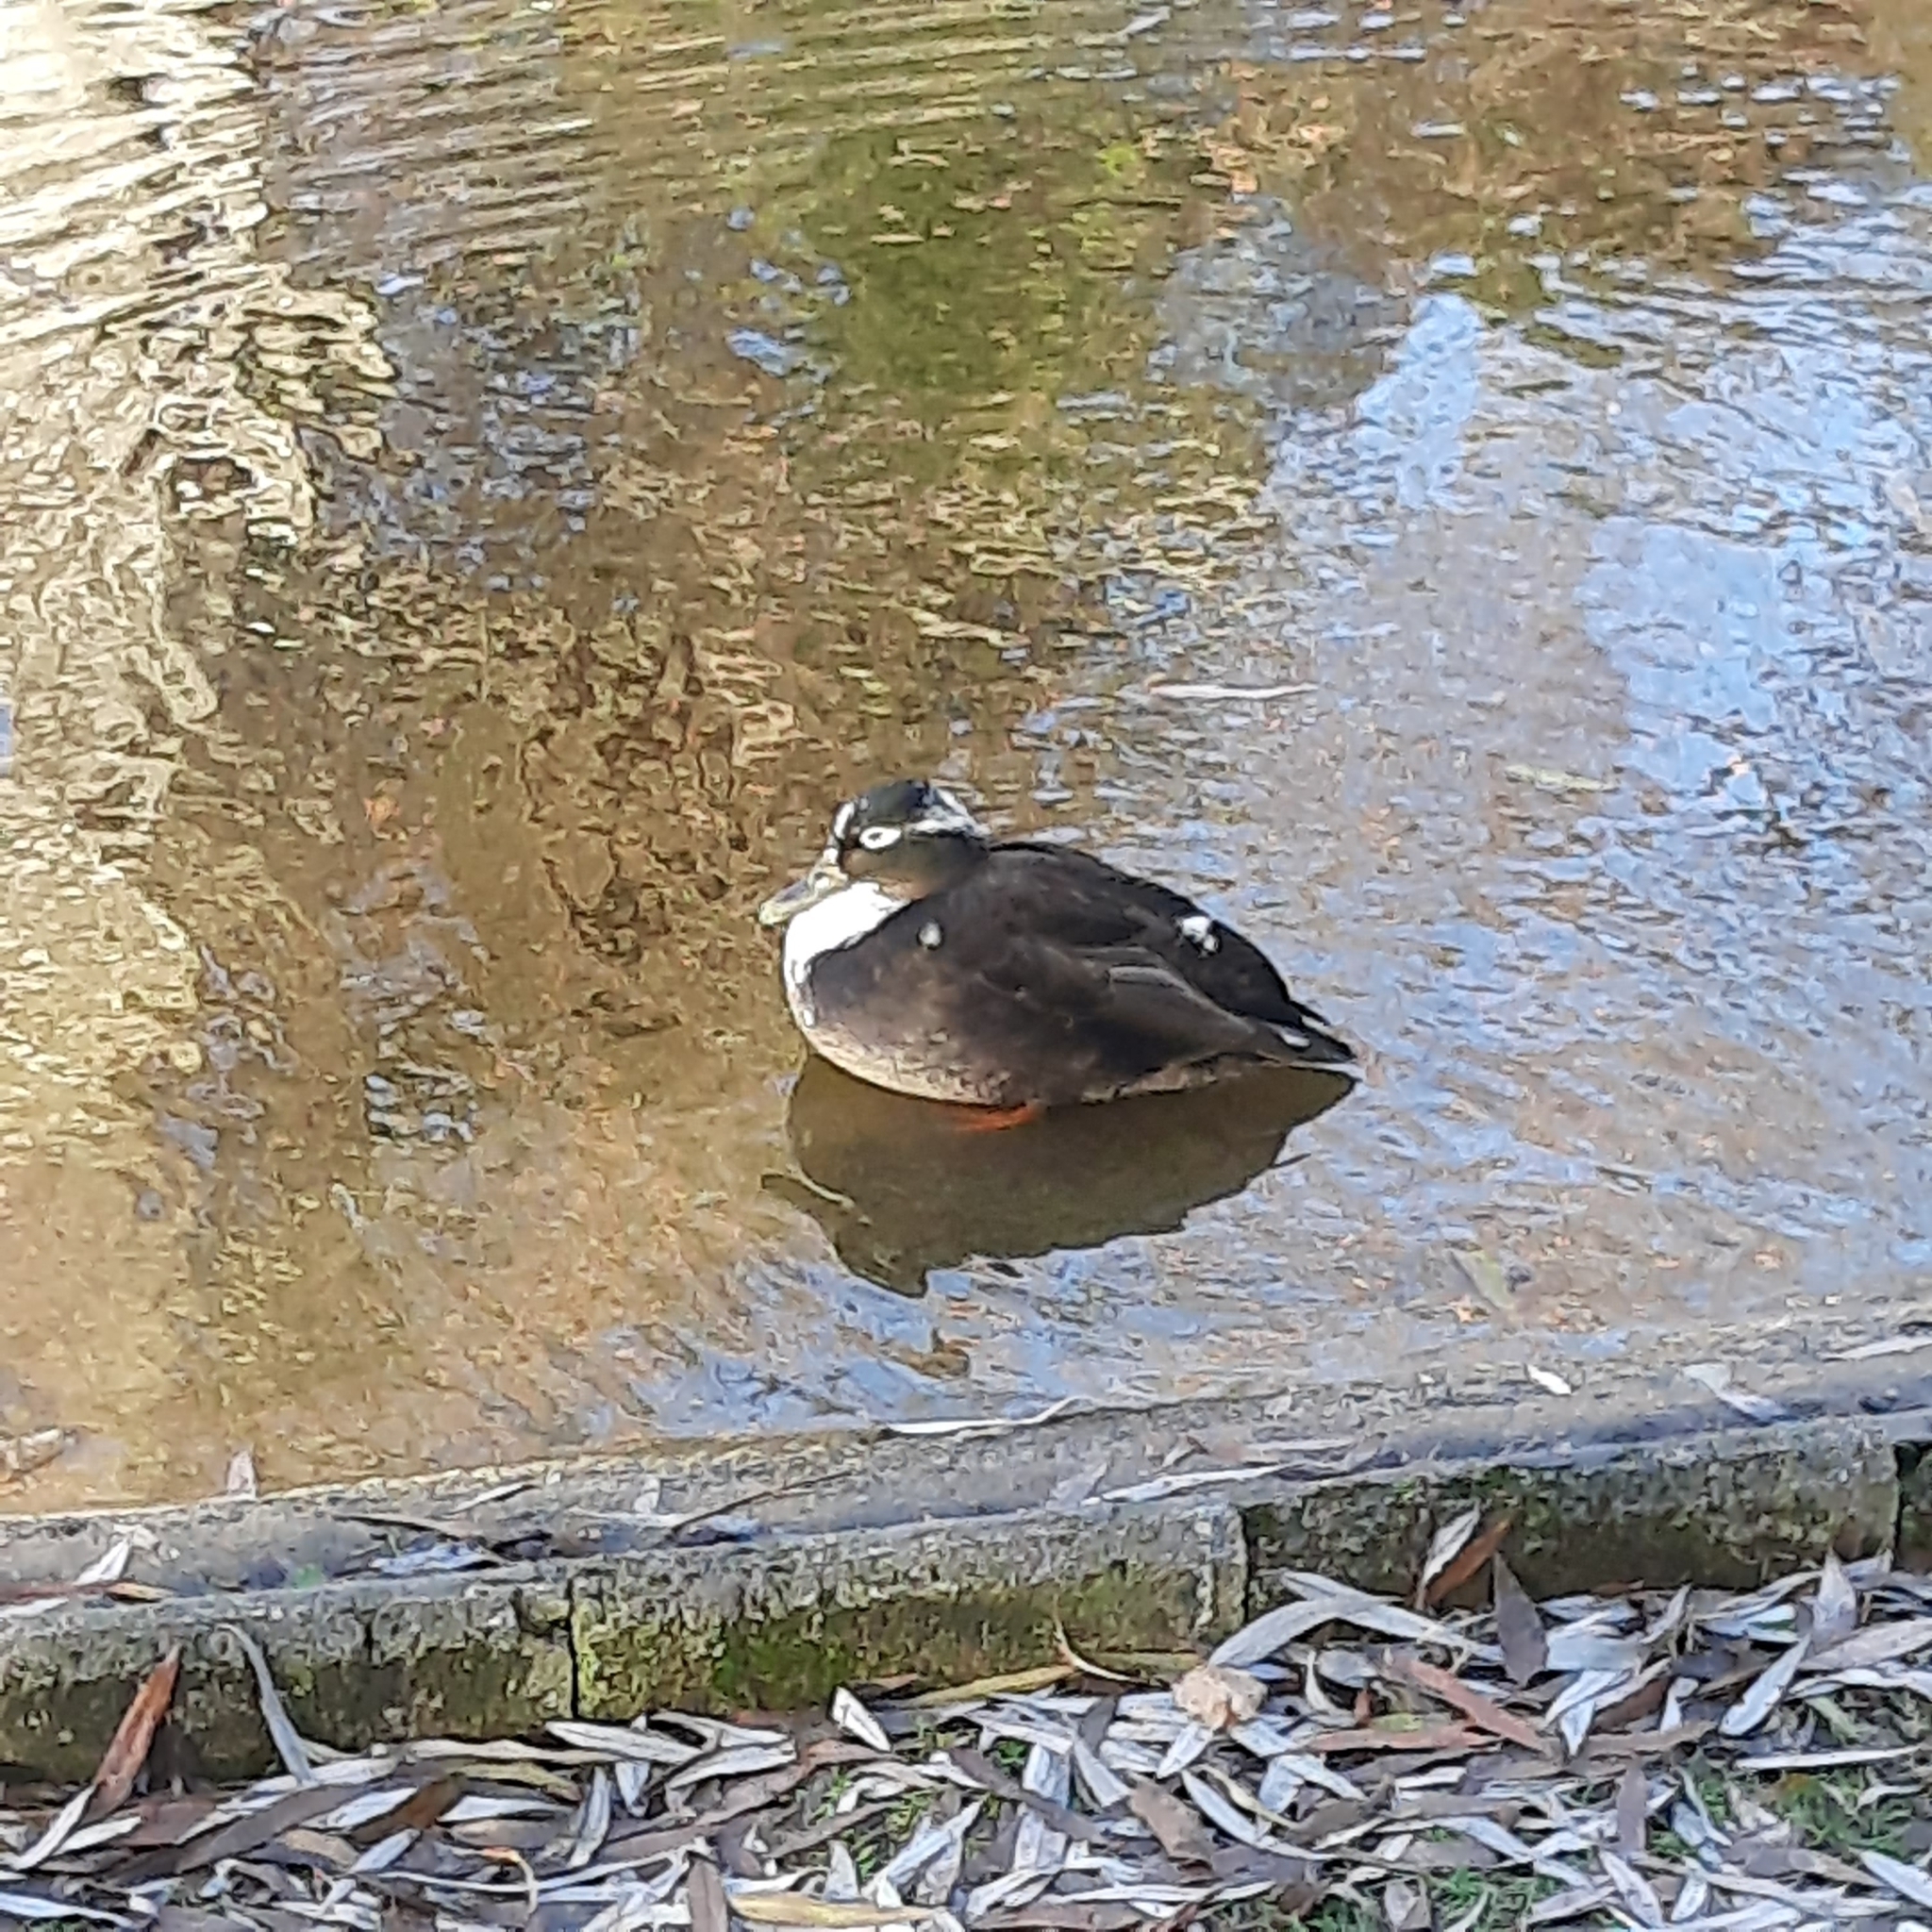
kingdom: Animalia
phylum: Chordata
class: Aves
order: Anseriformes
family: Anatidae
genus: Anas
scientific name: Anas platyrhynchos
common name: Mallard
